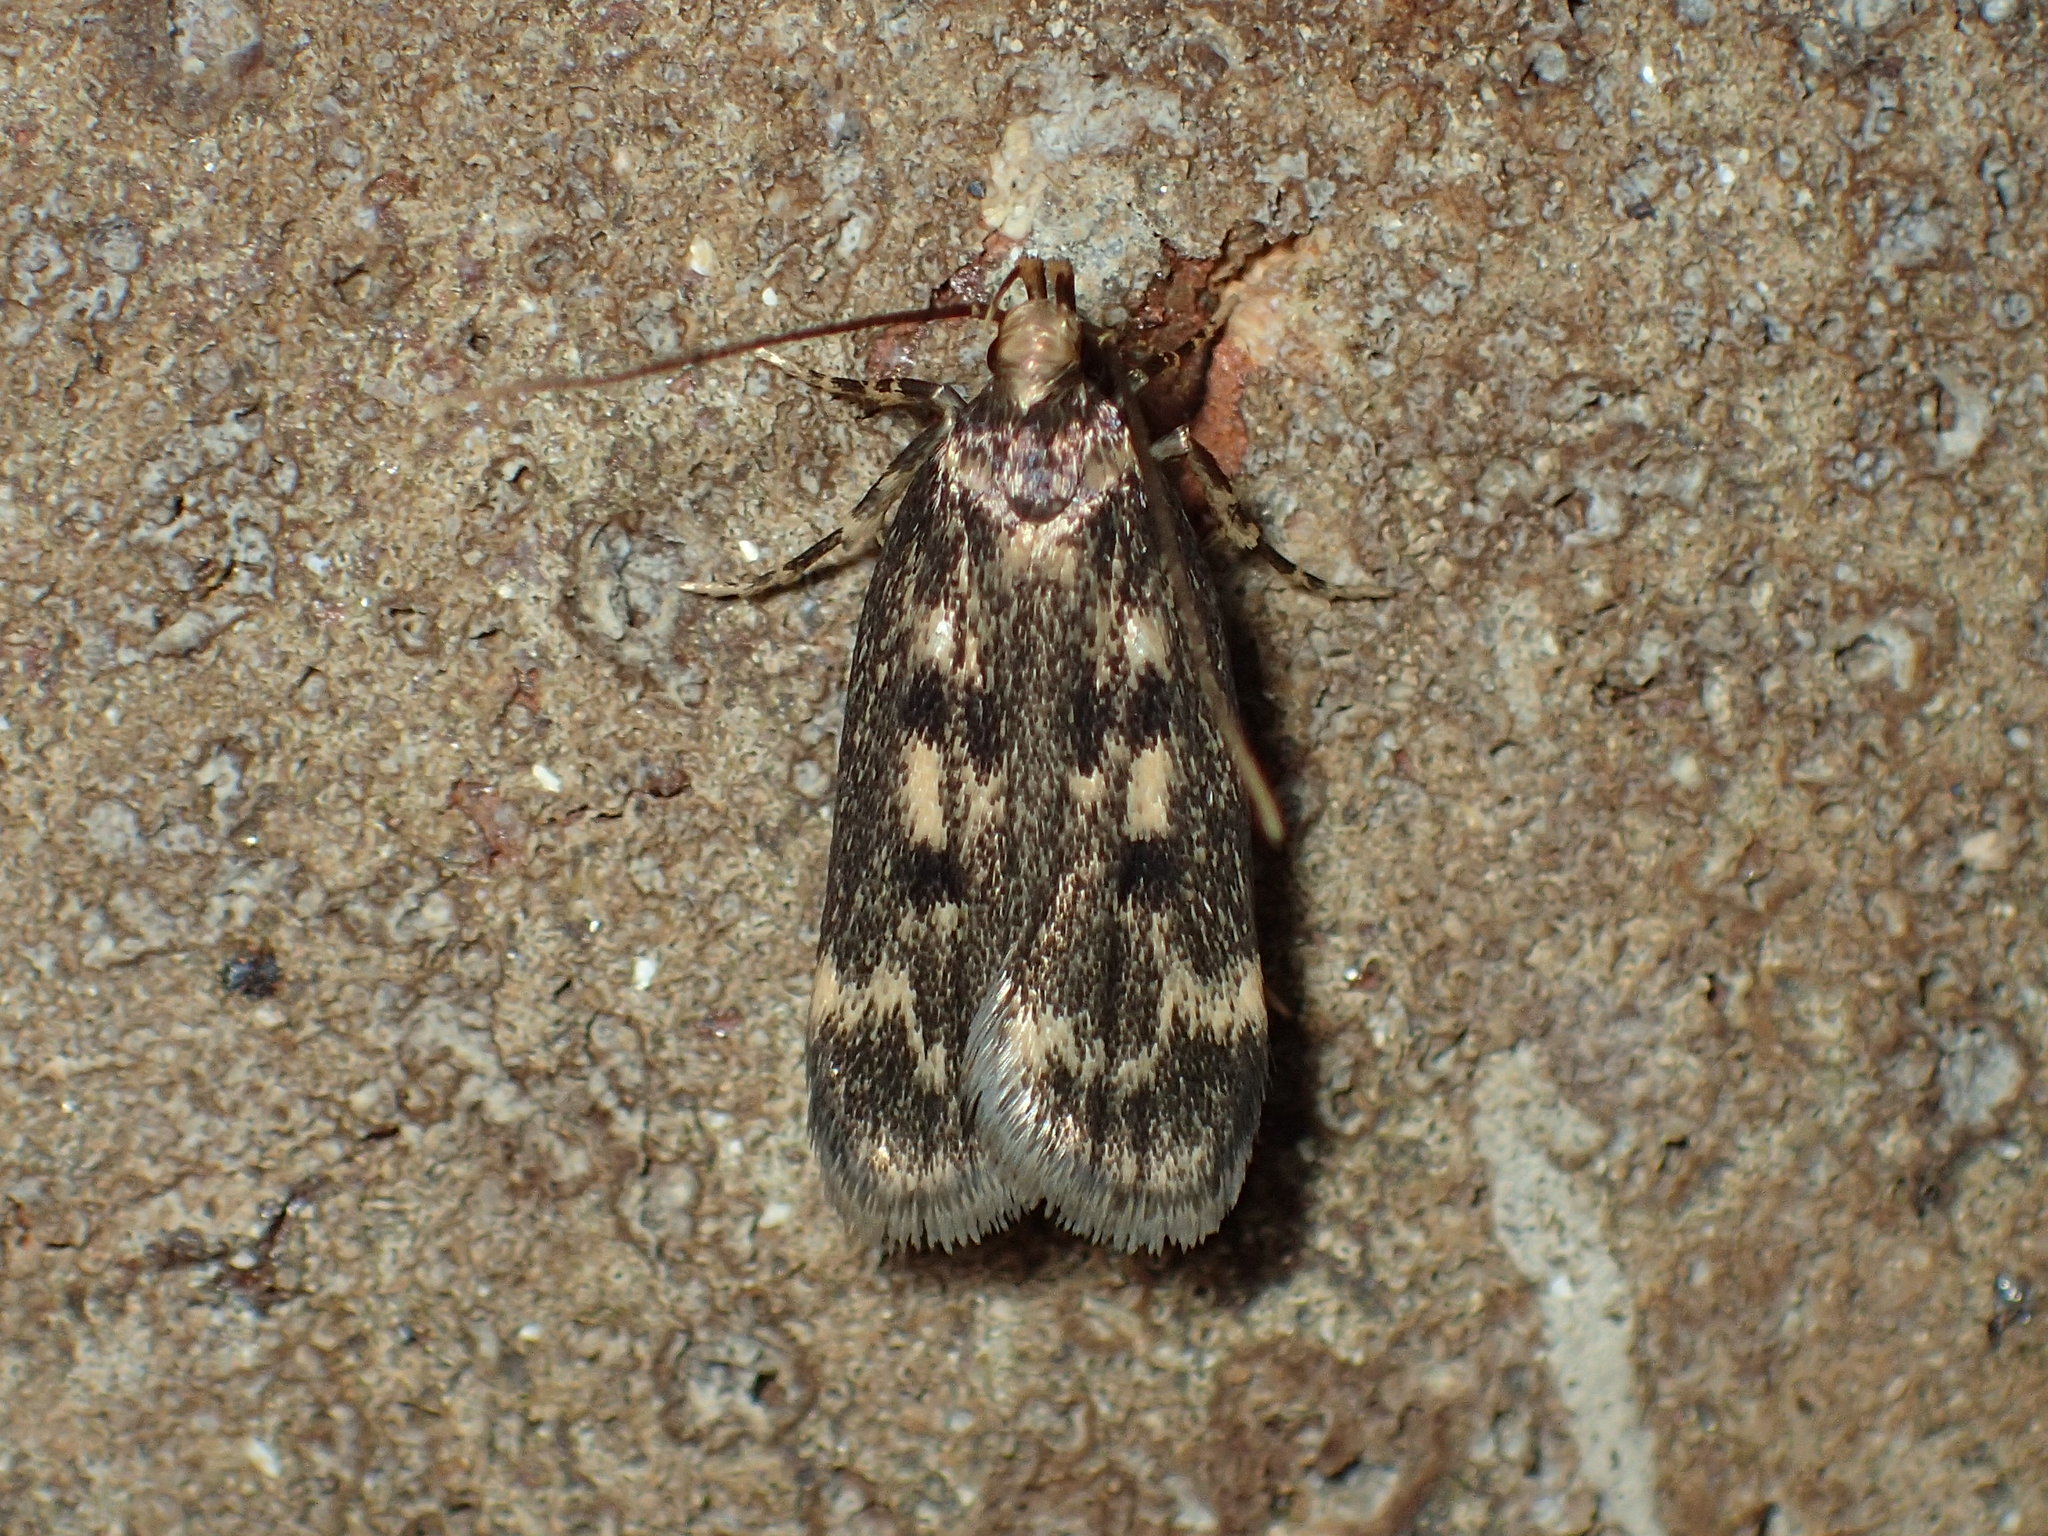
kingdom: Animalia
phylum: Arthropoda
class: Insecta
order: Lepidoptera
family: Lecithoceridae
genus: Martyringa
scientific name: Martyringa latipennis
